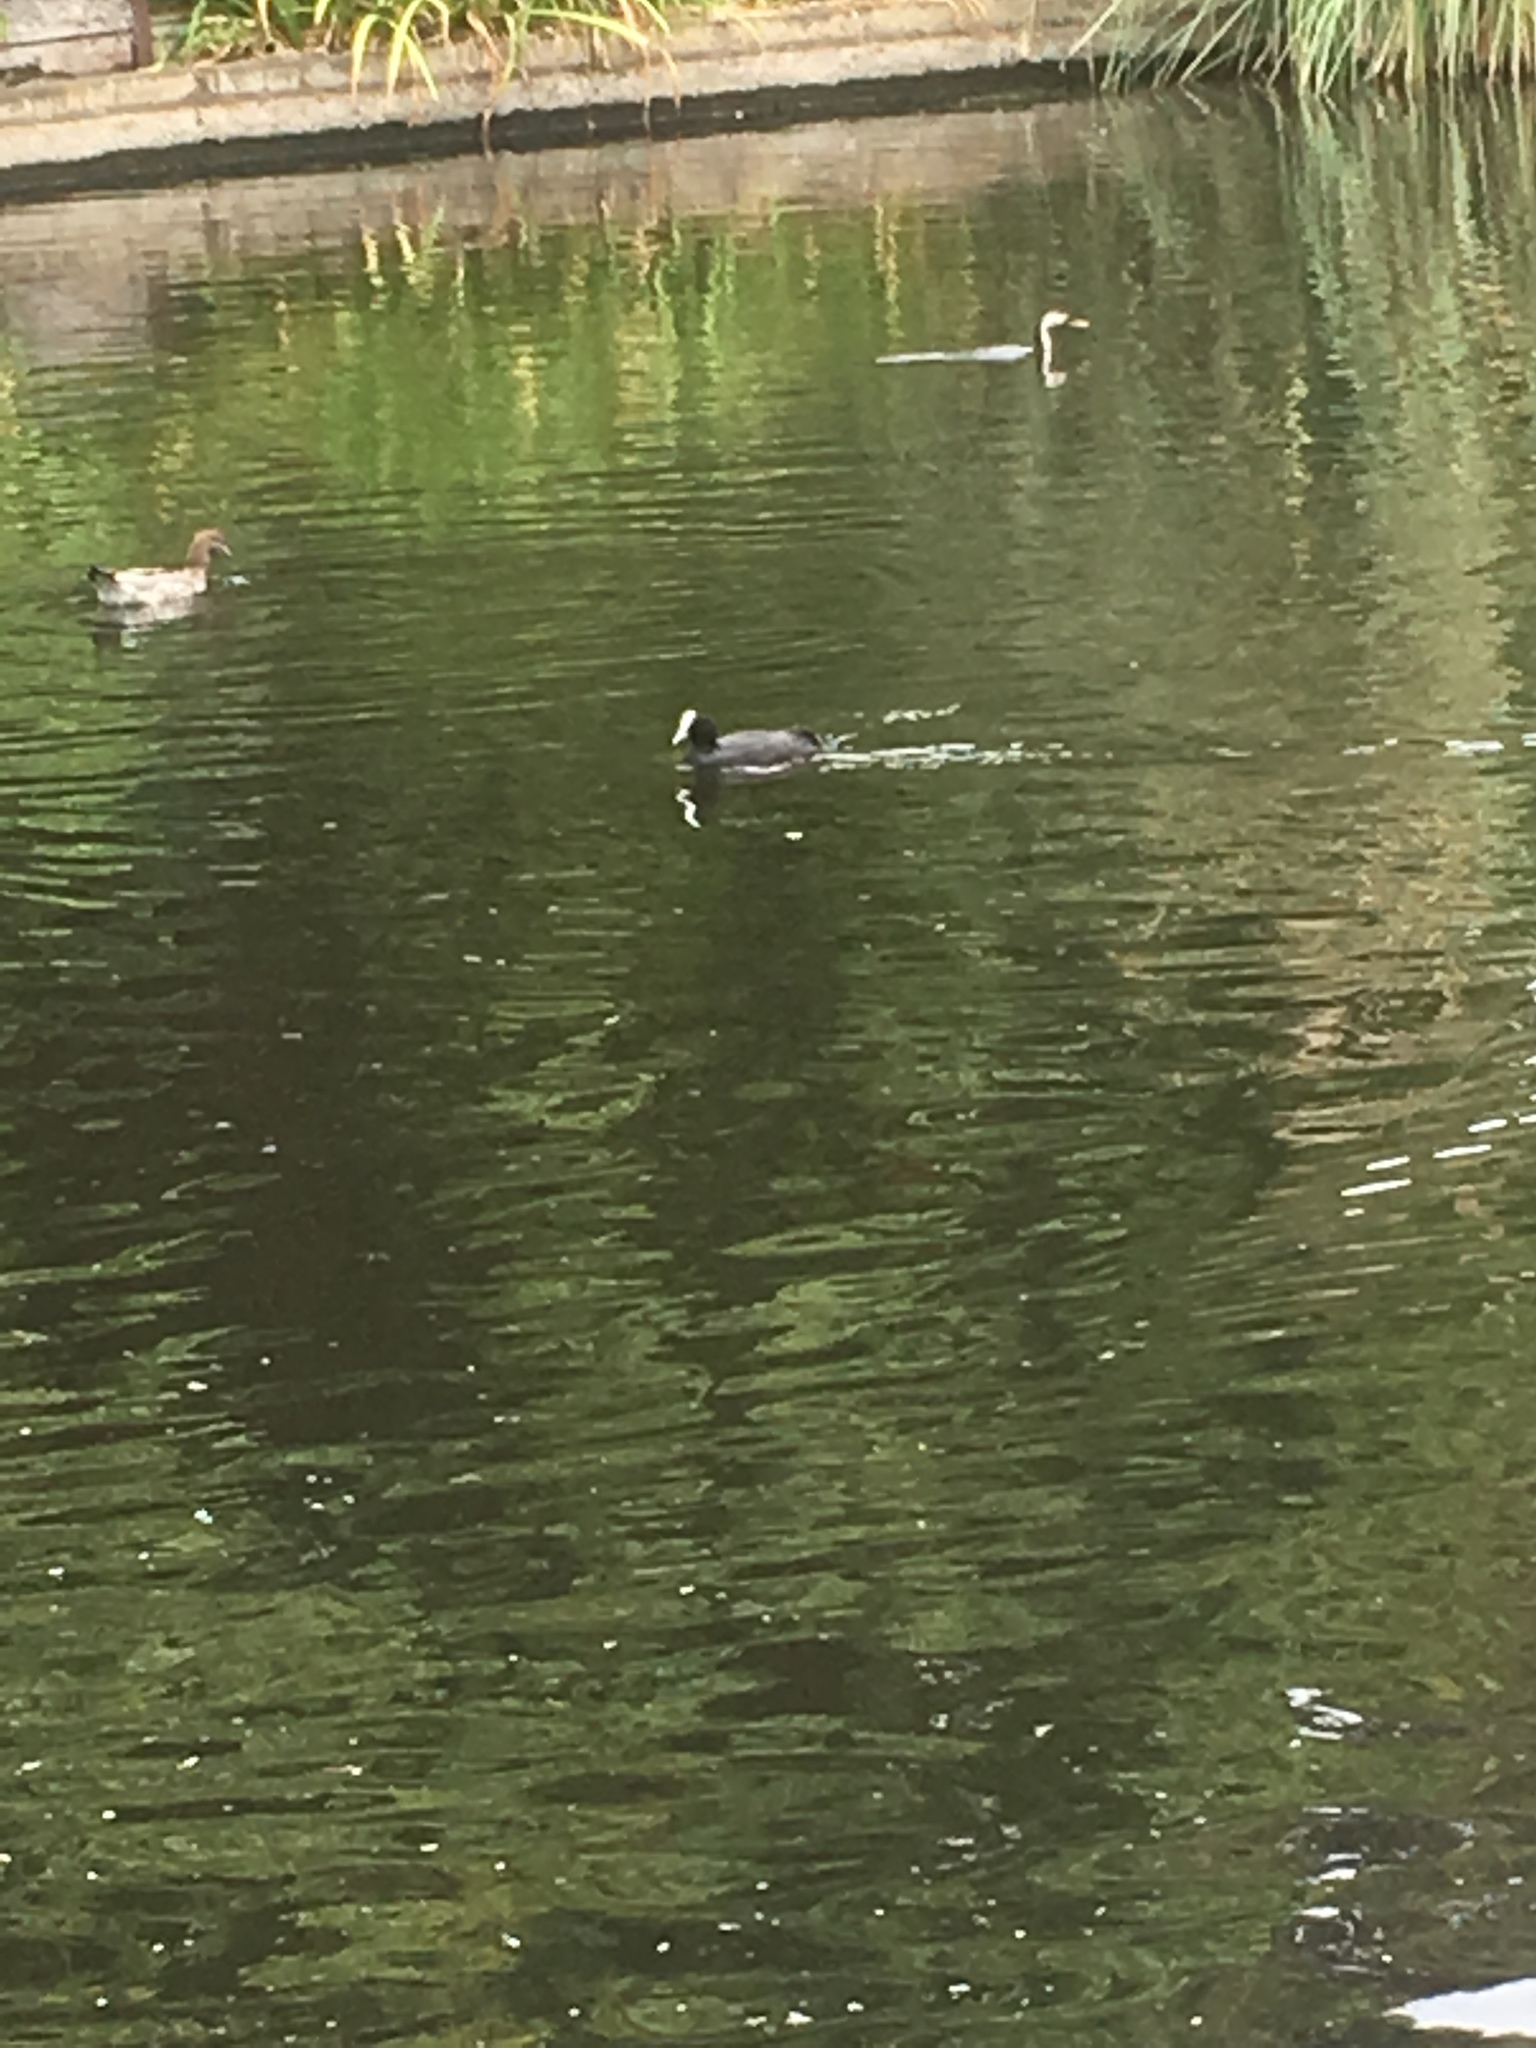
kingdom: Animalia
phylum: Chordata
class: Aves
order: Gruiformes
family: Rallidae
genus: Fulica
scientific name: Fulica atra
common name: Eurasian coot
